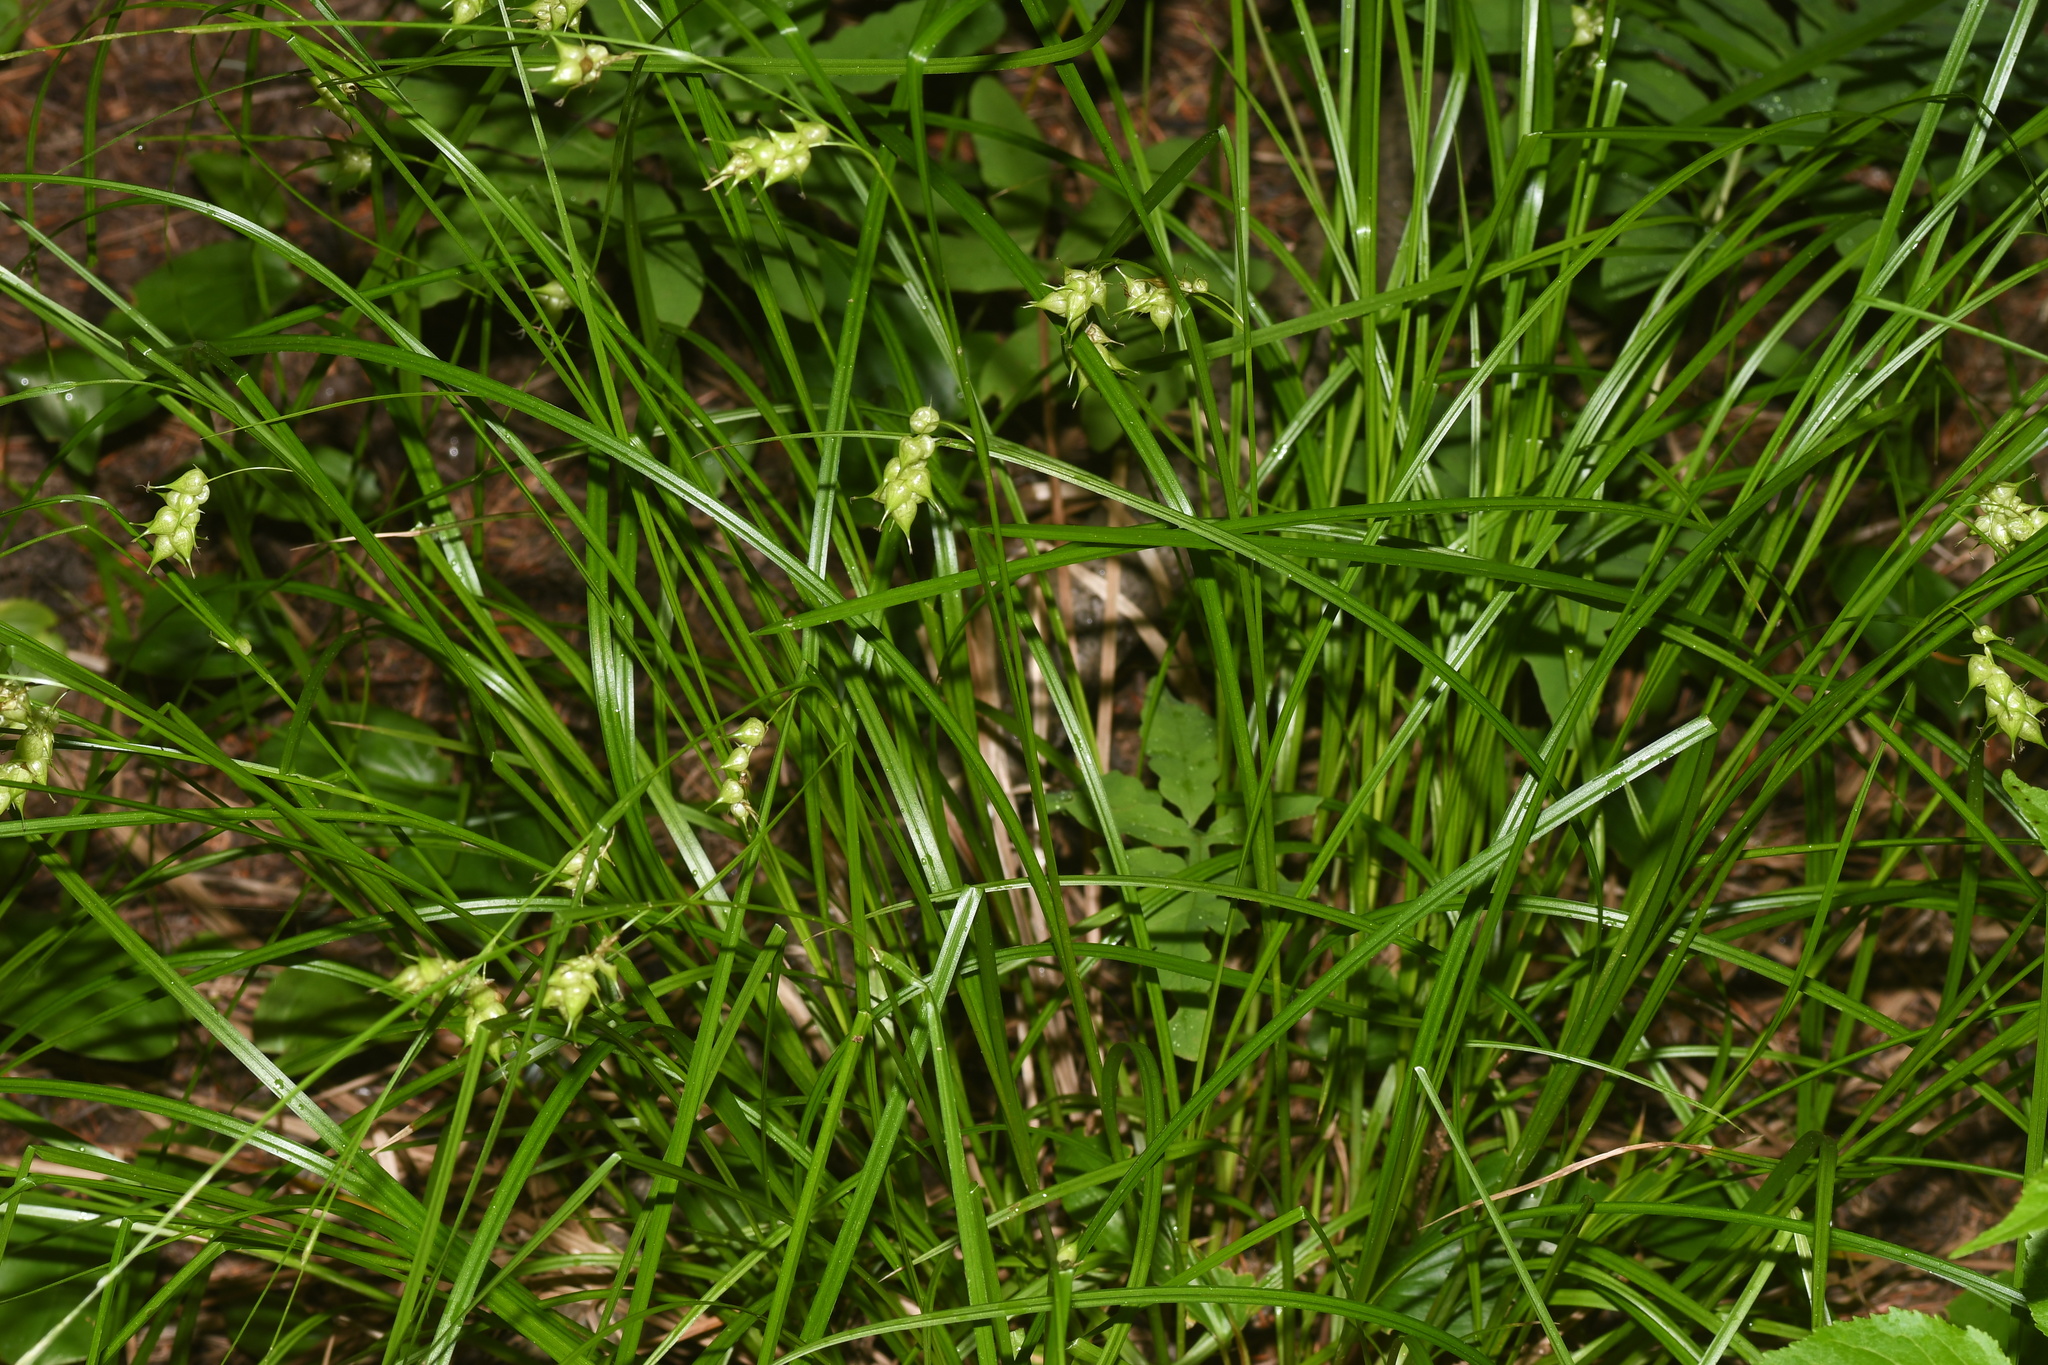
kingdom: Plantae
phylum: Tracheophyta
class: Liliopsida
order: Poales
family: Cyperaceae
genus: Carex
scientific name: Carex tuckermanii
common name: Tuckerman's sedge
